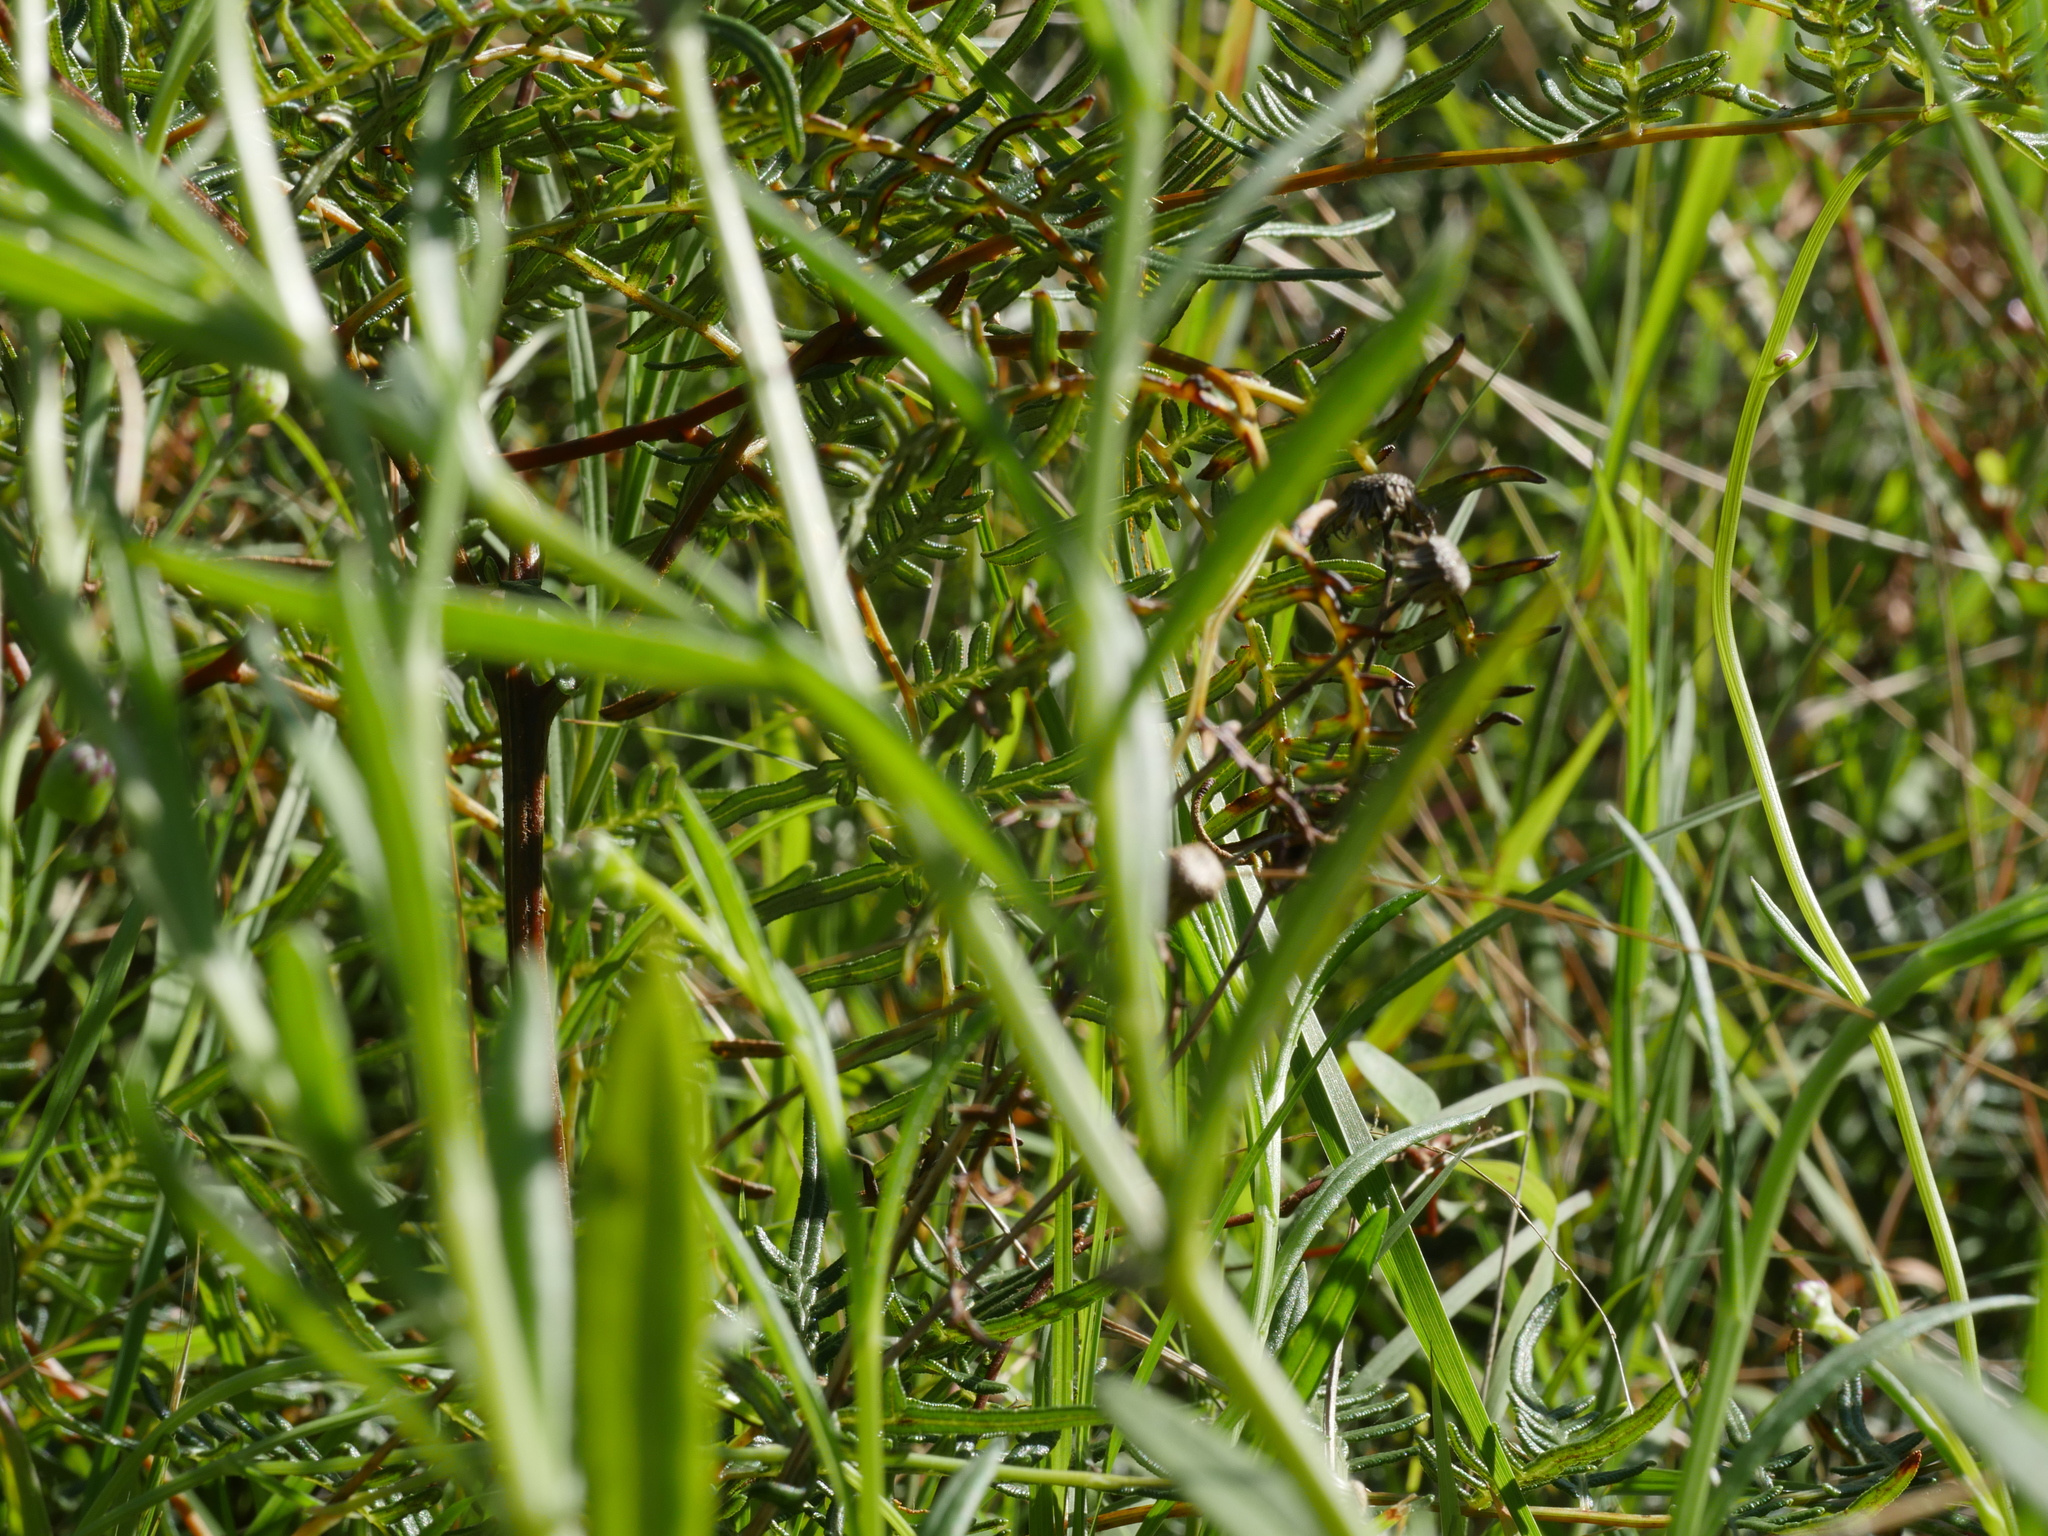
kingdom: Plantae
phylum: Tracheophyta
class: Magnoliopsida
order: Asterales
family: Asteraceae
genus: Senecio
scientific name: Senecio skirrhodon
